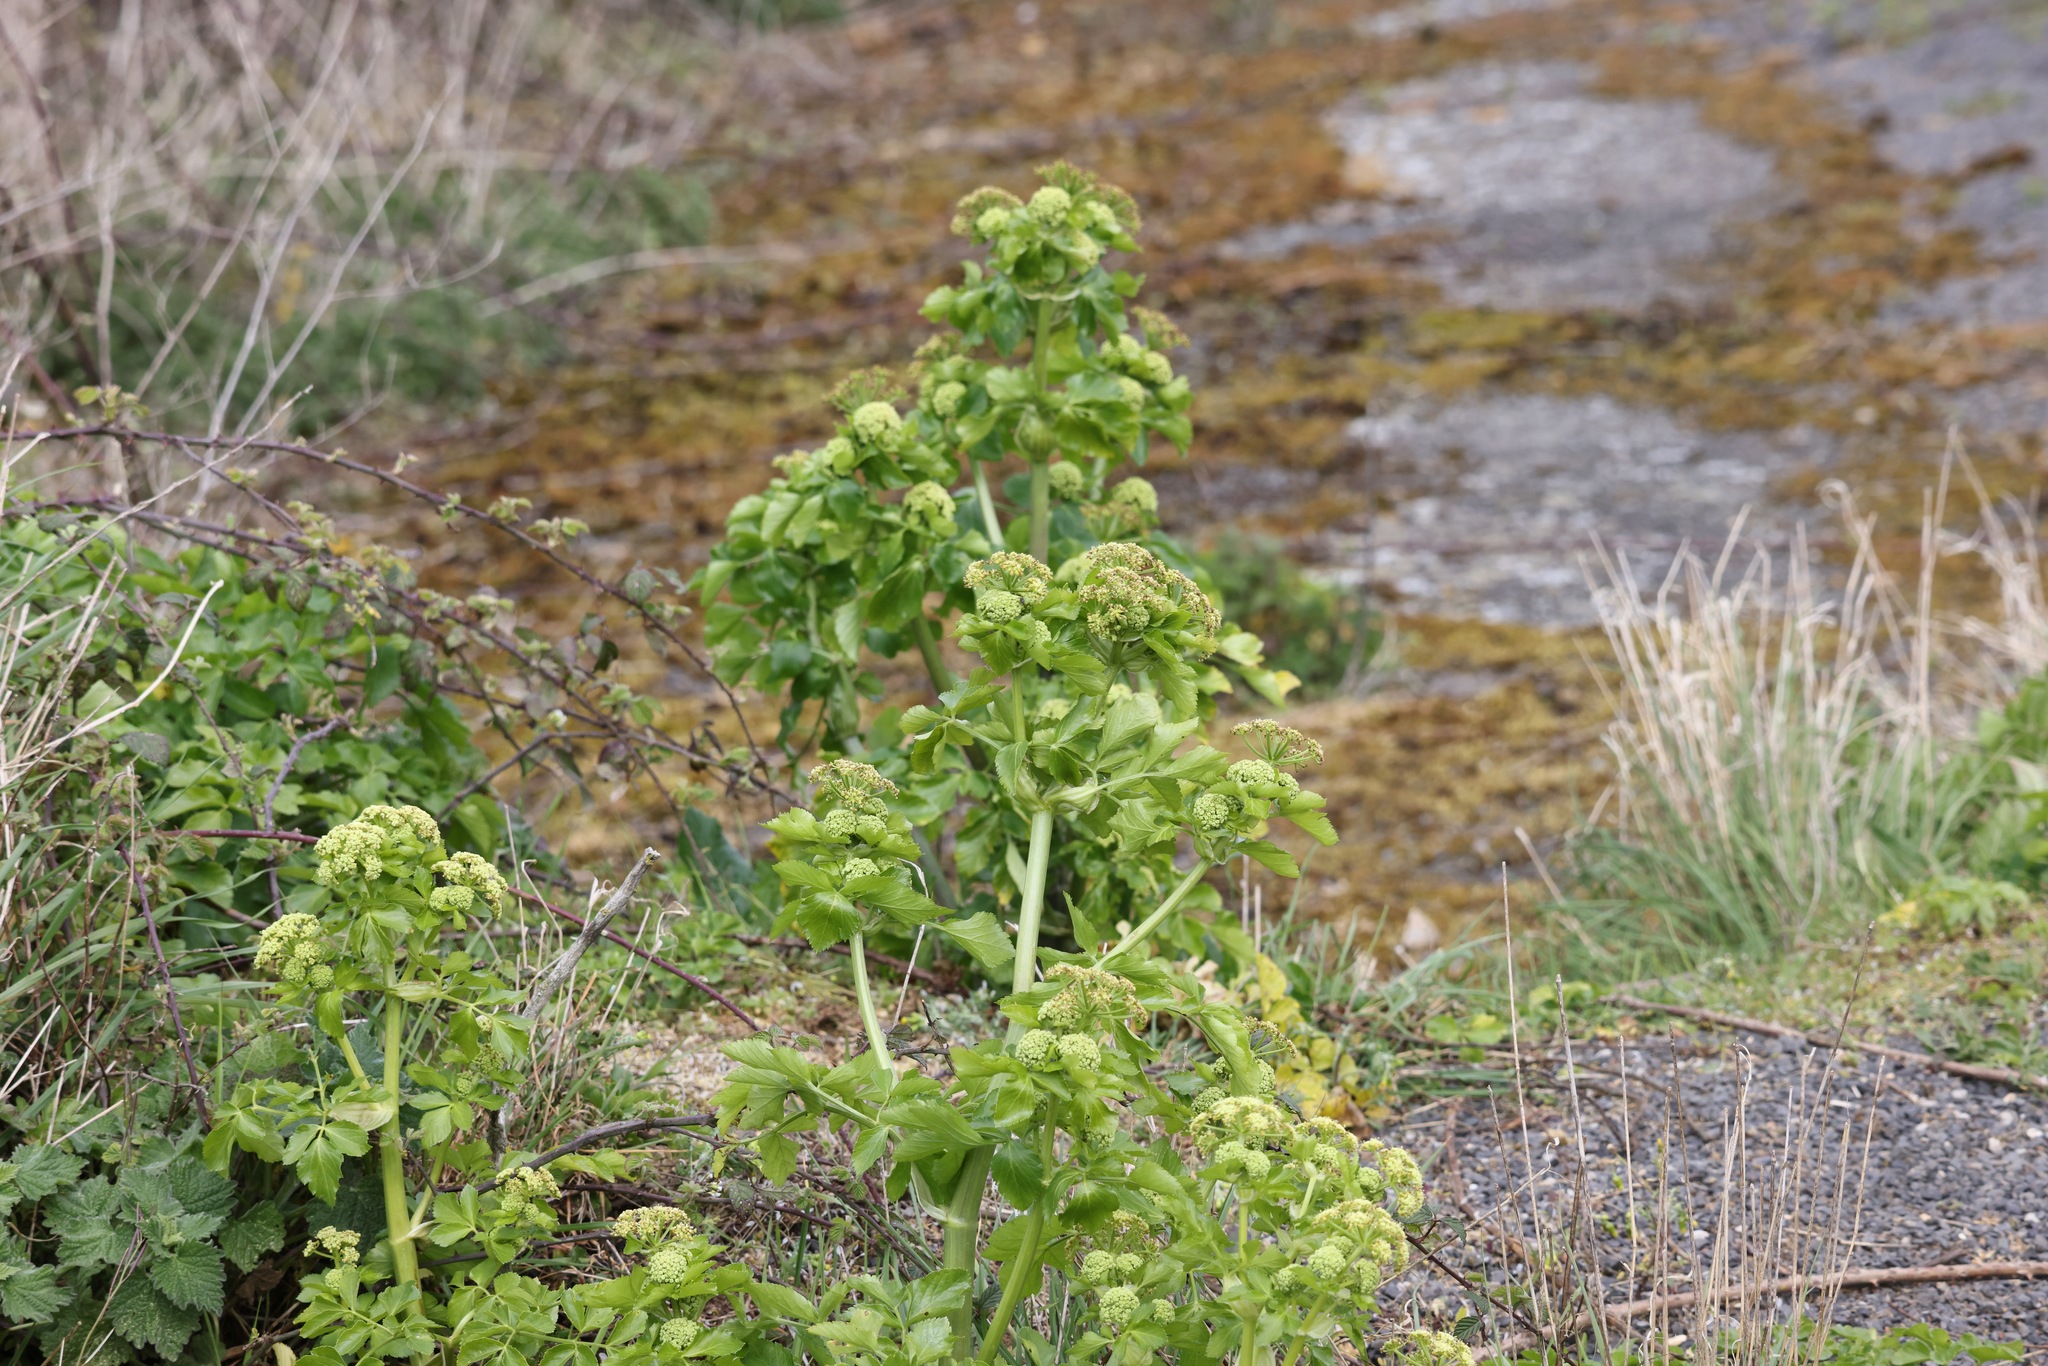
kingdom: Plantae
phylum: Tracheophyta
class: Magnoliopsida
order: Apiales
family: Apiaceae
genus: Smyrnium
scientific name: Smyrnium olusatrum
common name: Alexanders
